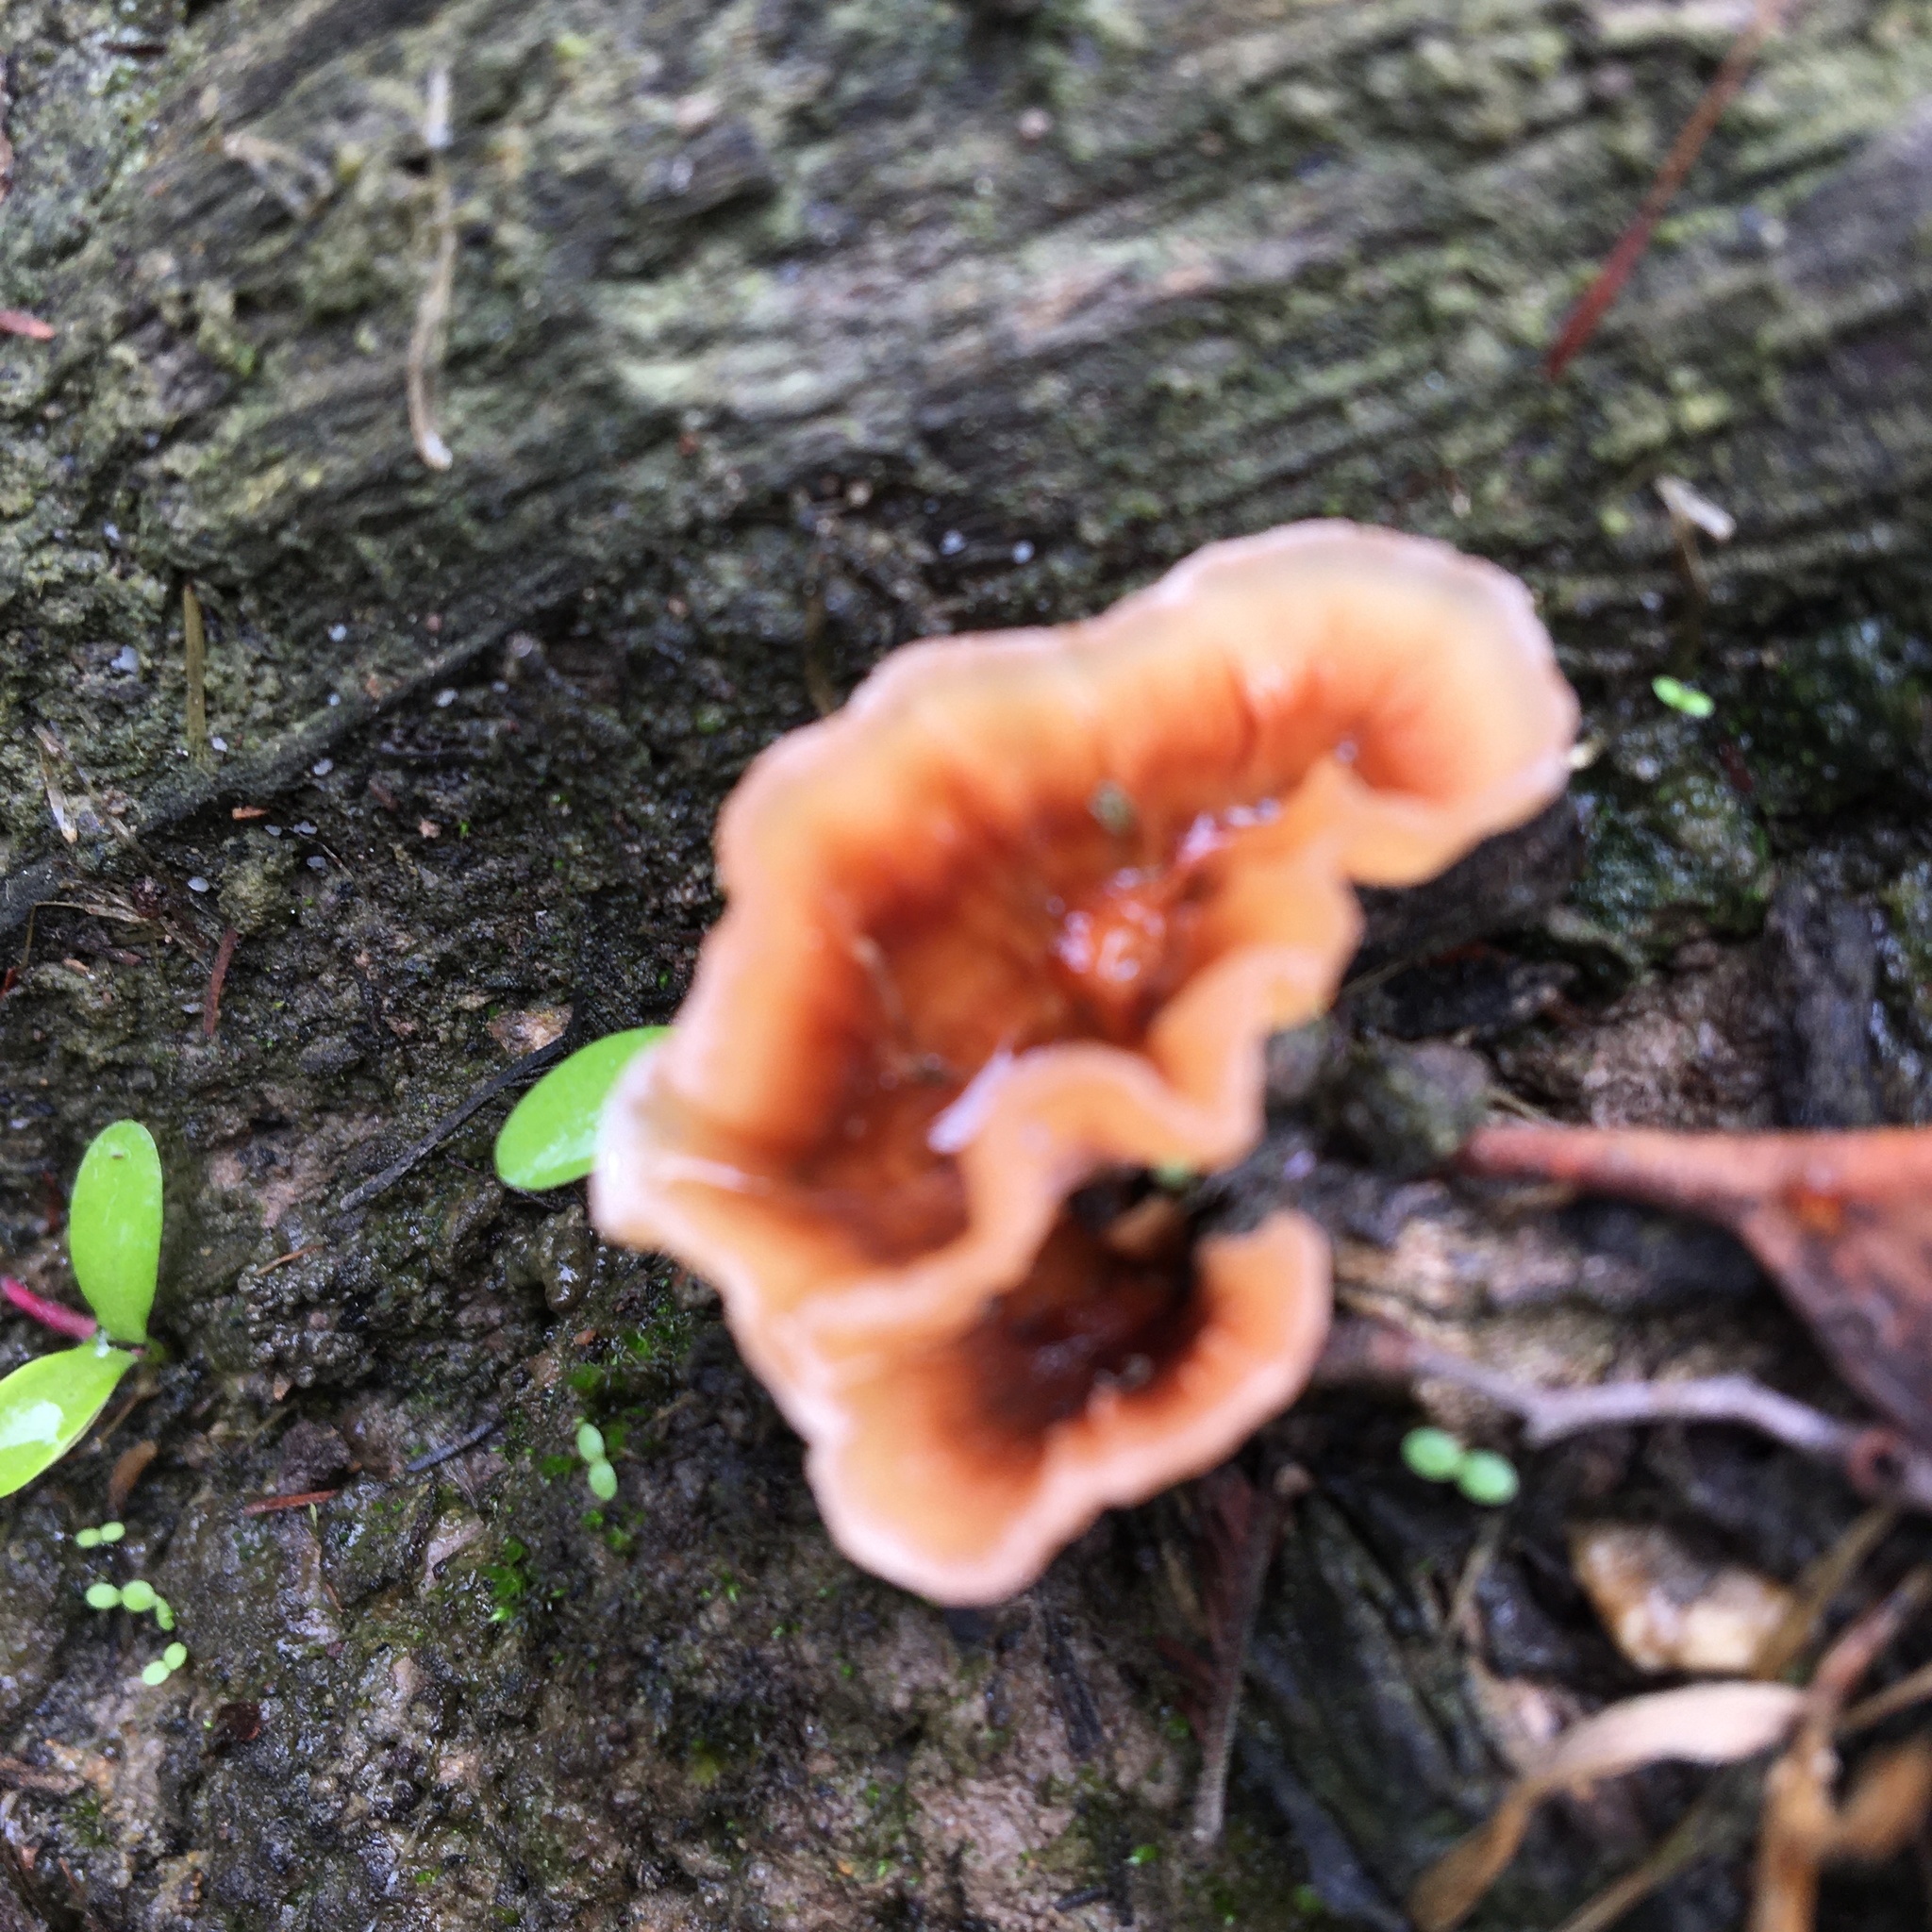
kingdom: Fungi
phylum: Basidiomycota
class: Agaricomycetes
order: Polyporales
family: Podoscyphaceae
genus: Podoscypha
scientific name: Podoscypha petalodes
